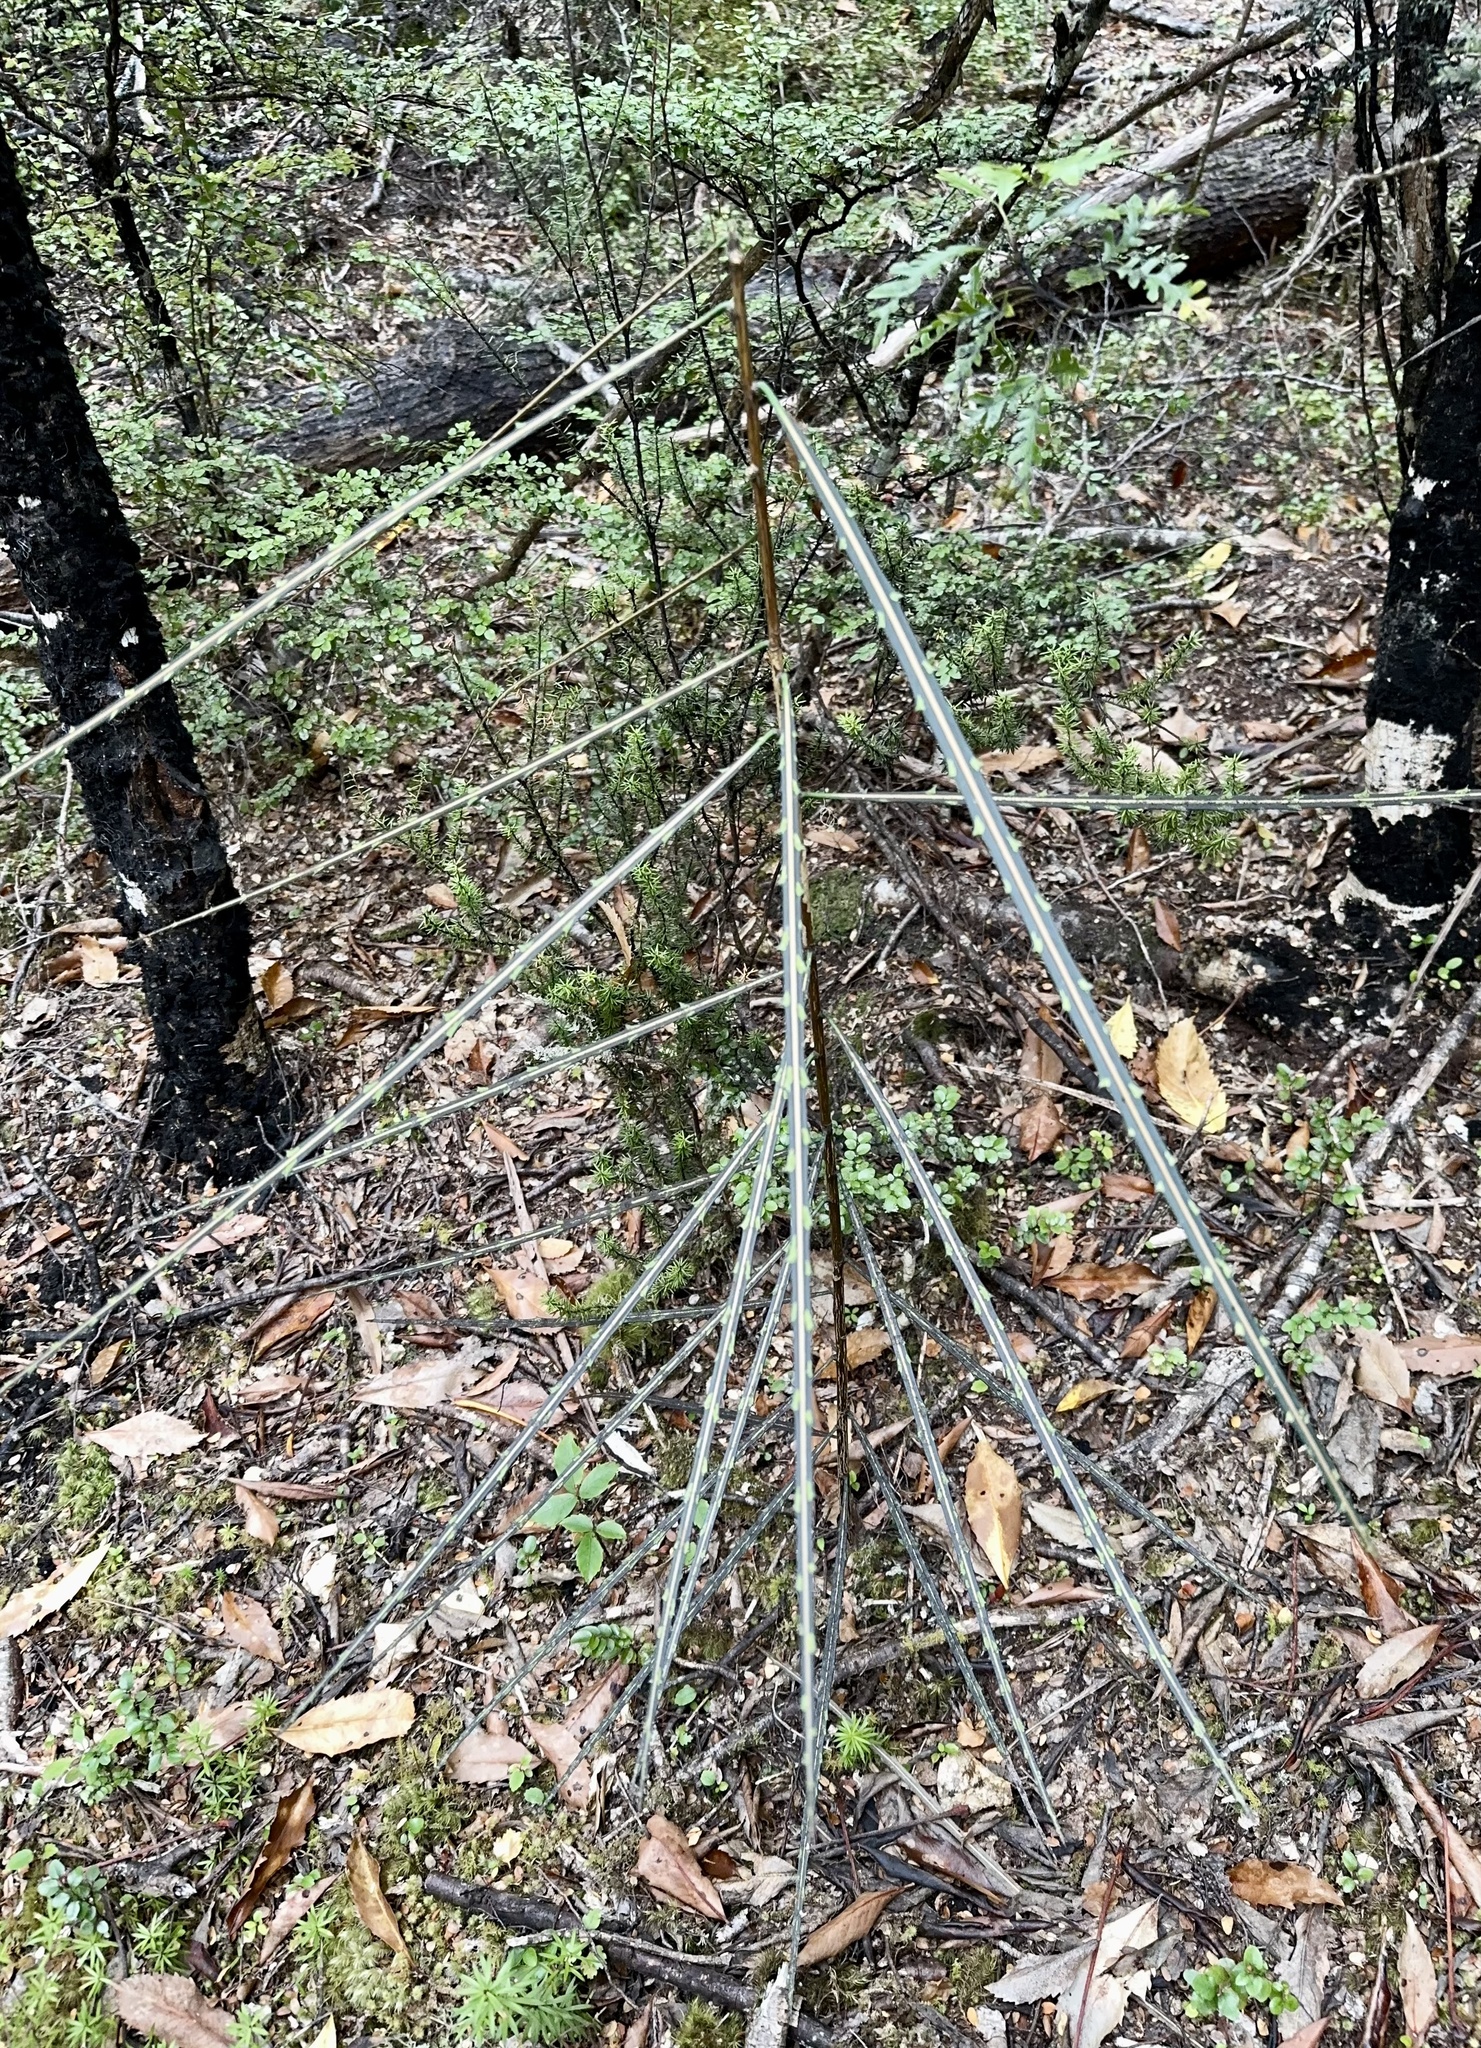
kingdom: Plantae
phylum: Tracheophyta
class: Magnoliopsida
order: Apiales
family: Araliaceae
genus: Pseudopanax
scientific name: Pseudopanax crassifolius
